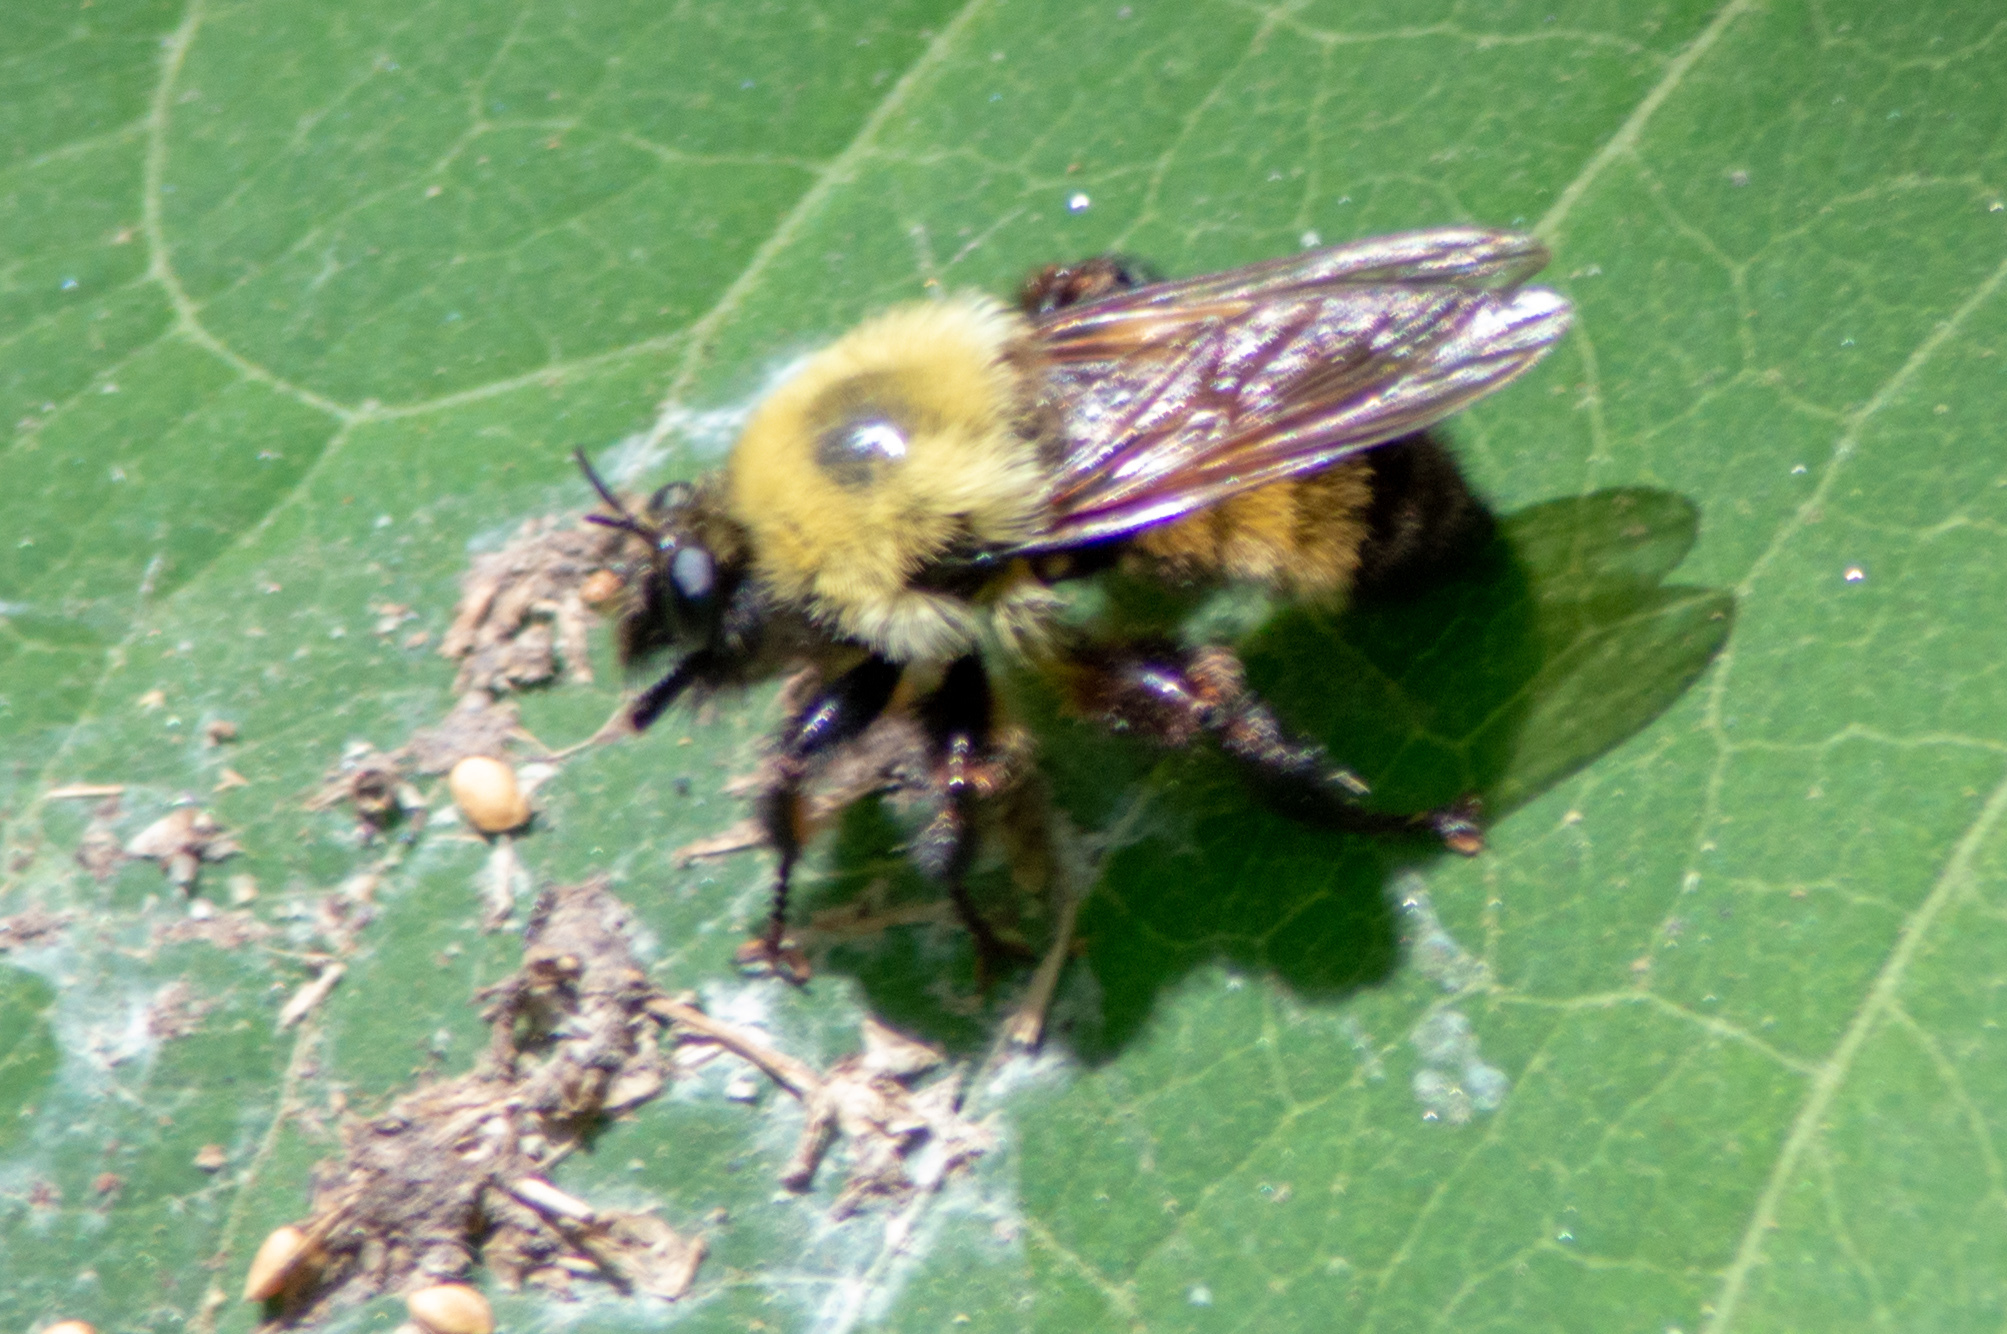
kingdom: Animalia
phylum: Arthropoda
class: Insecta
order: Diptera
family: Asilidae
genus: Laphria
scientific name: Laphria thoracica
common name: Bumble bee mimic robber fly
